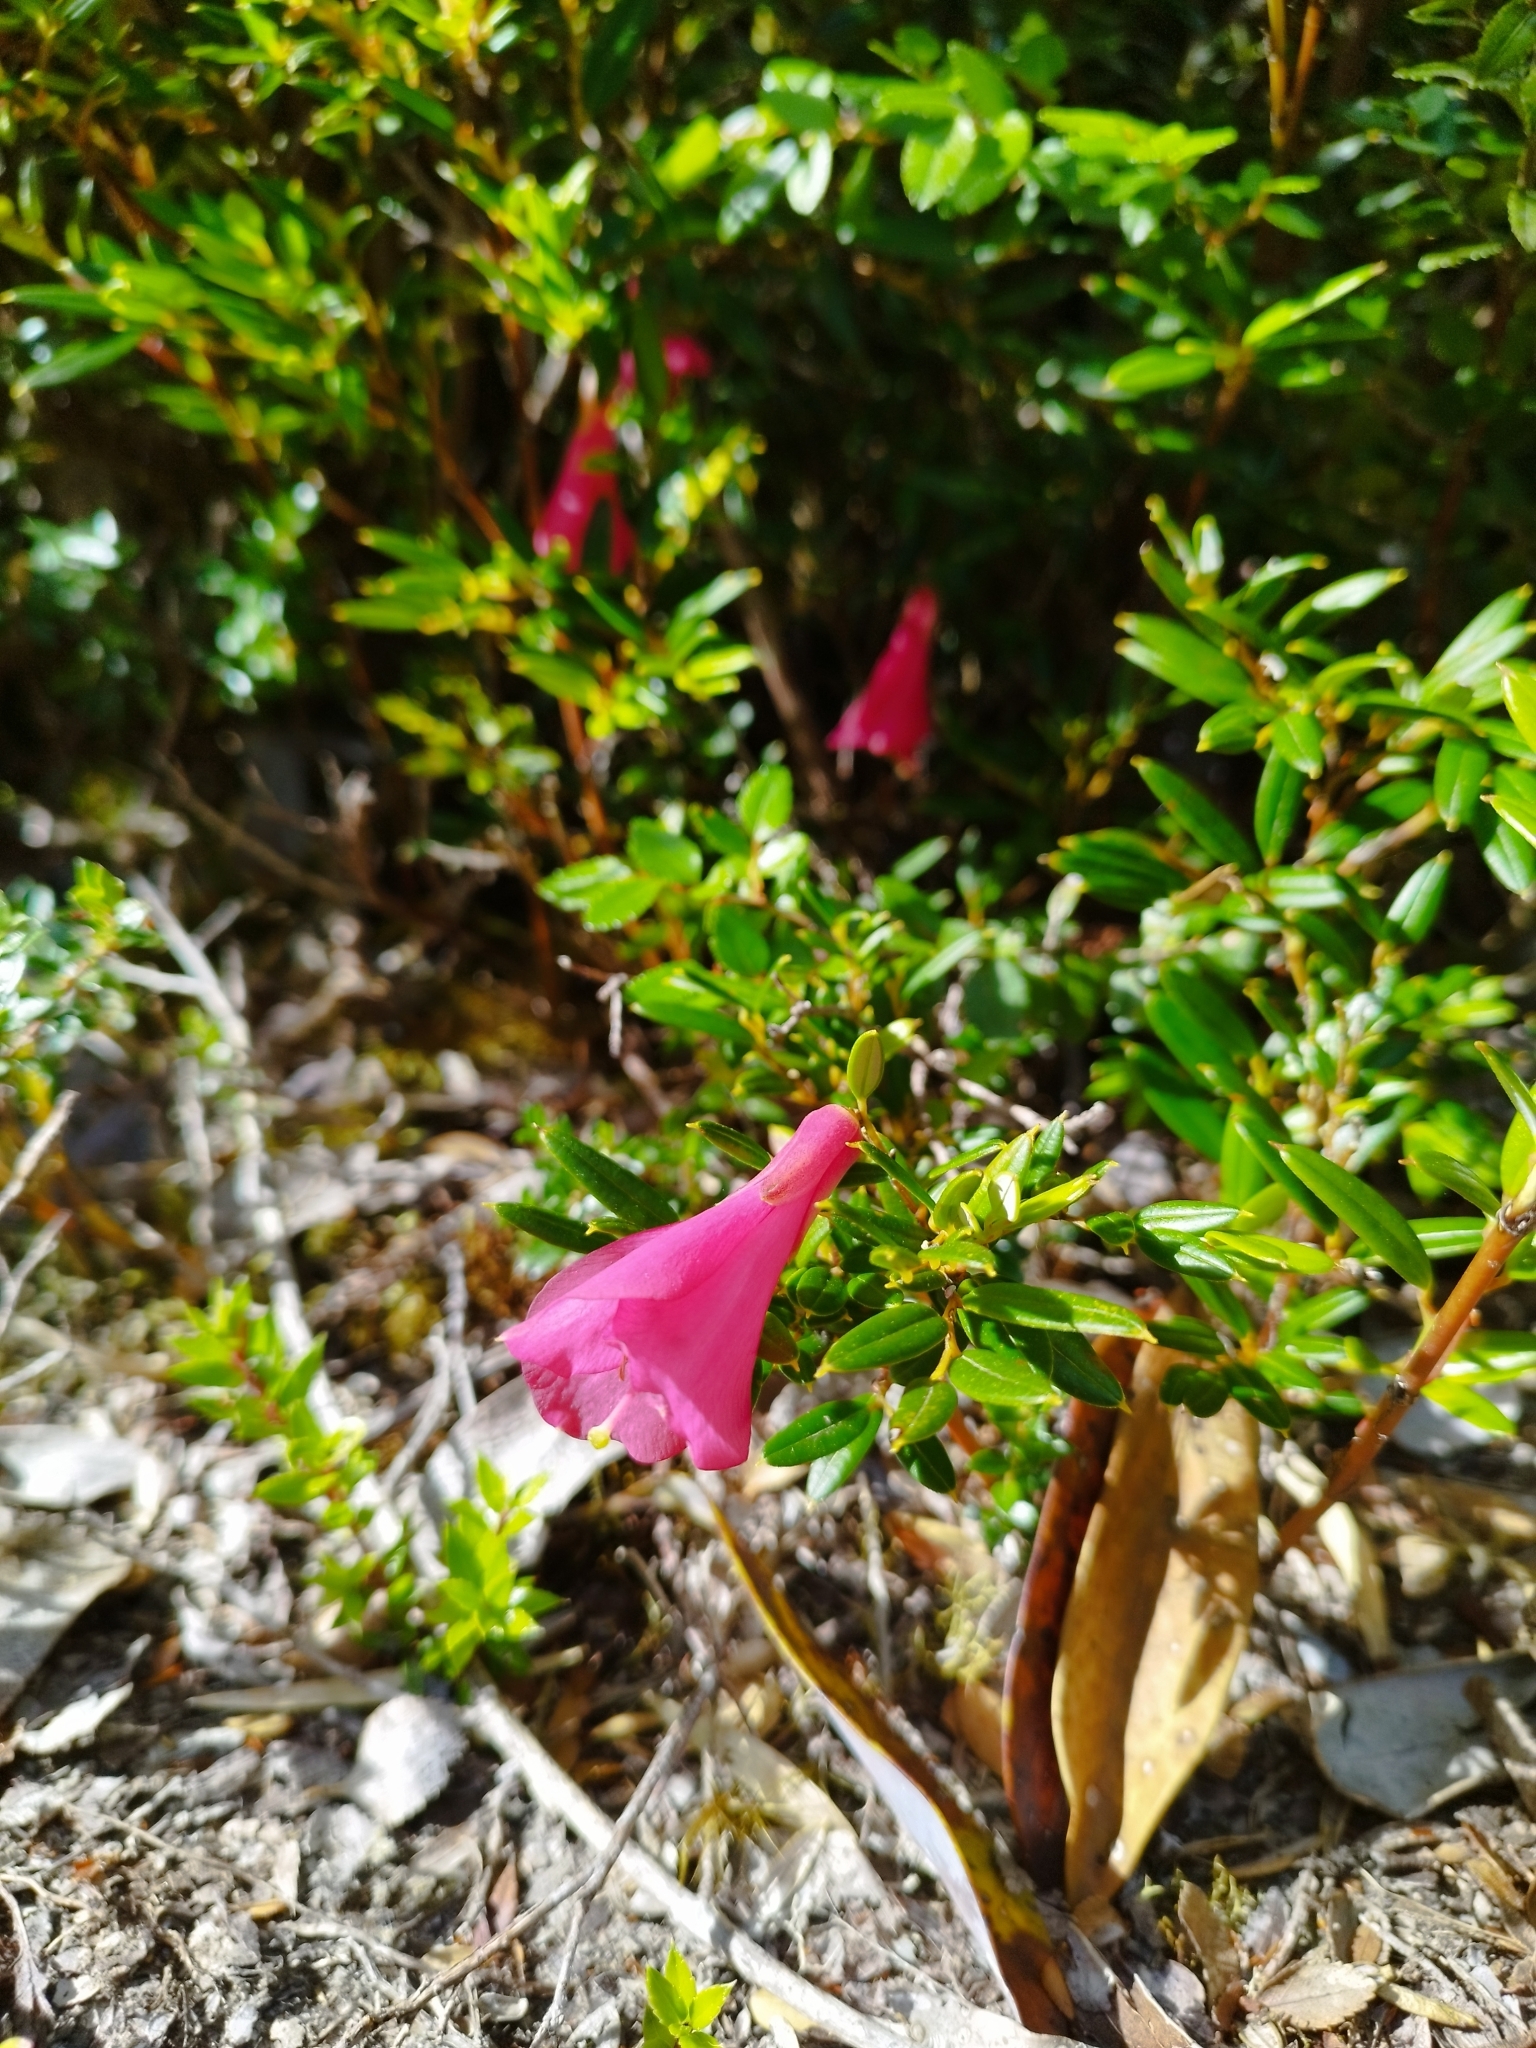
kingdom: Plantae
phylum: Tracheophyta
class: Liliopsida
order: Liliales
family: Philesiaceae
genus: Philesia
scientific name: Philesia magellanica
